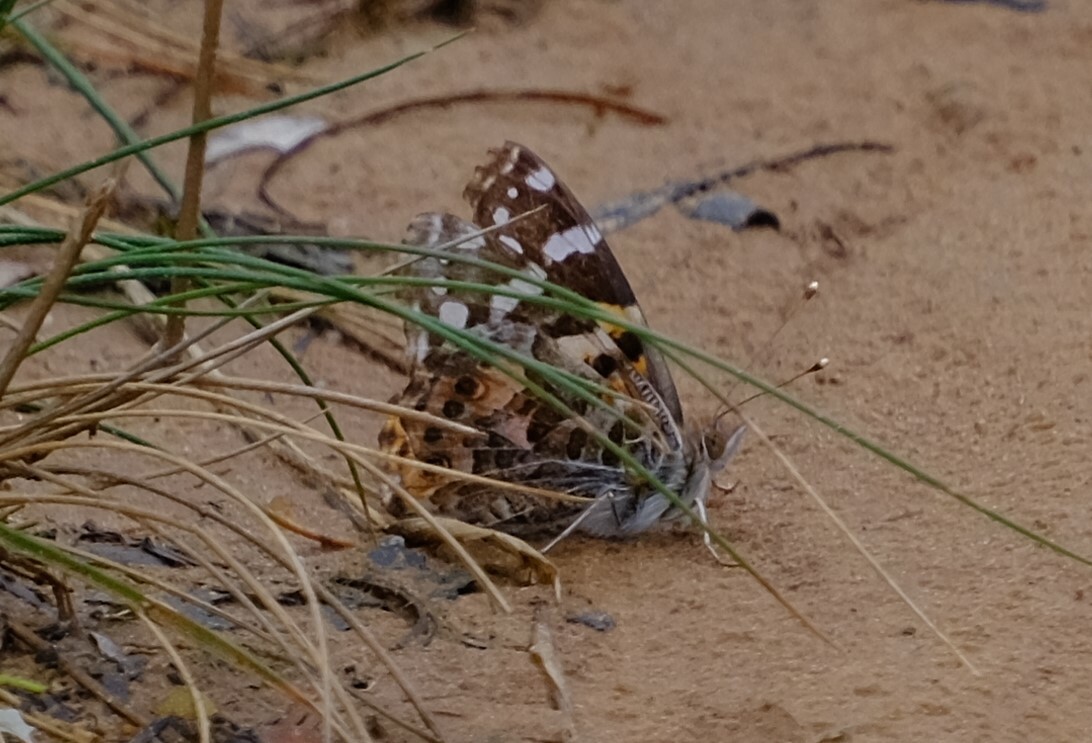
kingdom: Animalia
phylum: Arthropoda
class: Insecta
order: Lepidoptera
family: Nymphalidae
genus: Vanessa
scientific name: Vanessa kershawi
